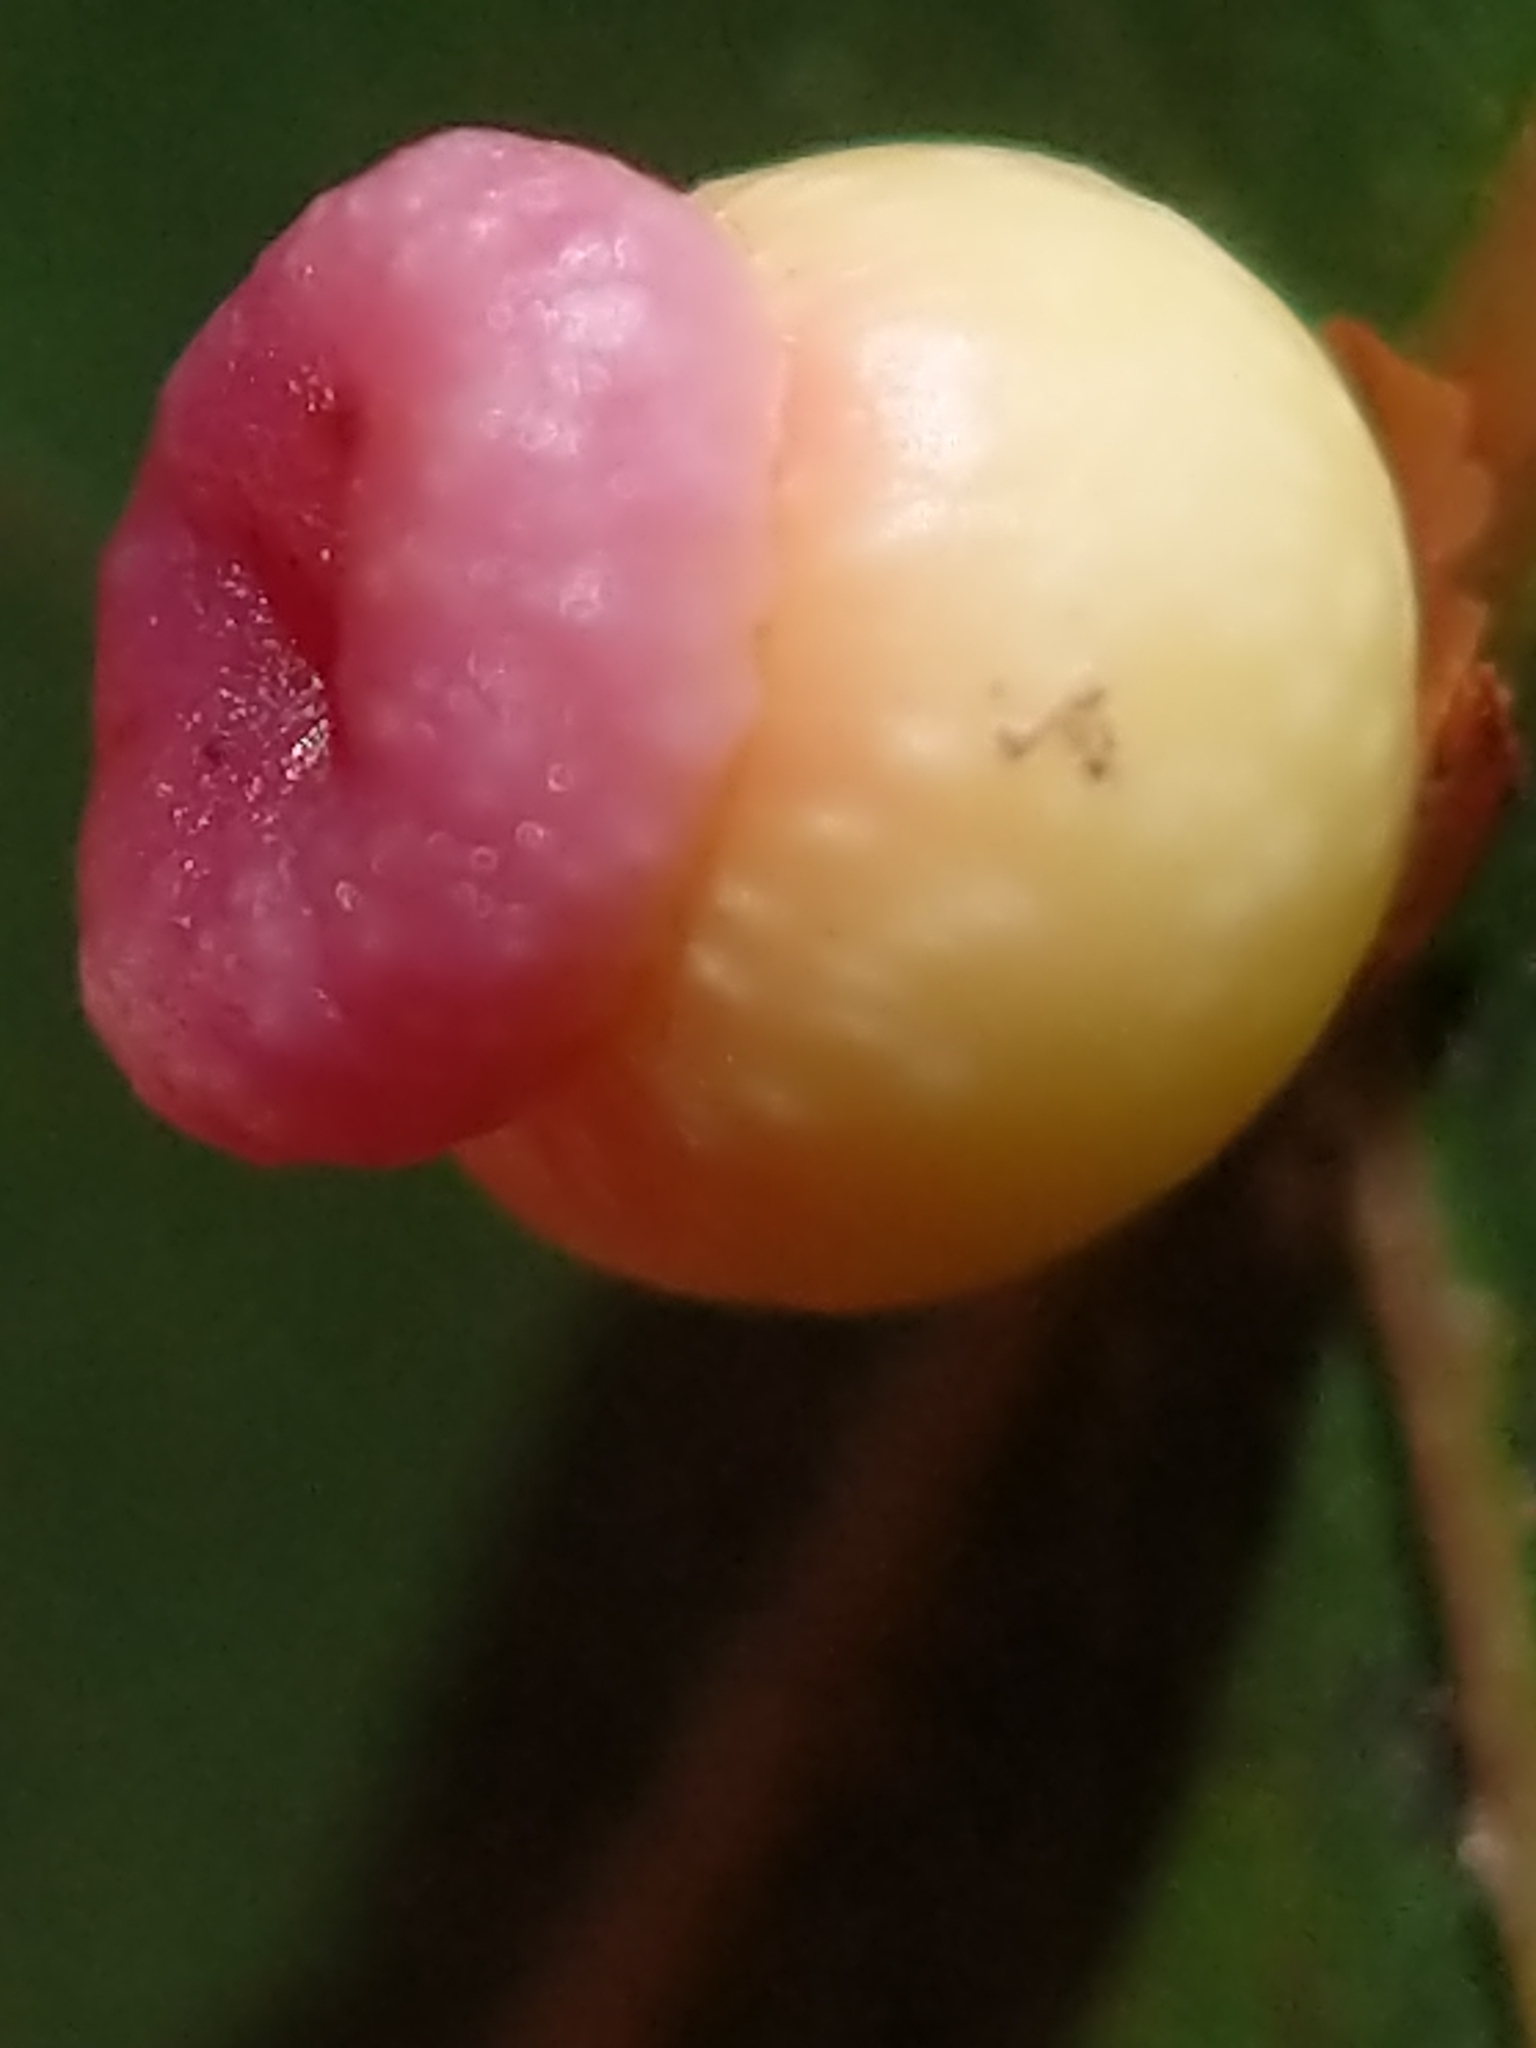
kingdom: Animalia
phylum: Arthropoda
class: Insecta
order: Hymenoptera
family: Cynipidae
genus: Kokkocynips
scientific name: Kokkocynips rileyi
